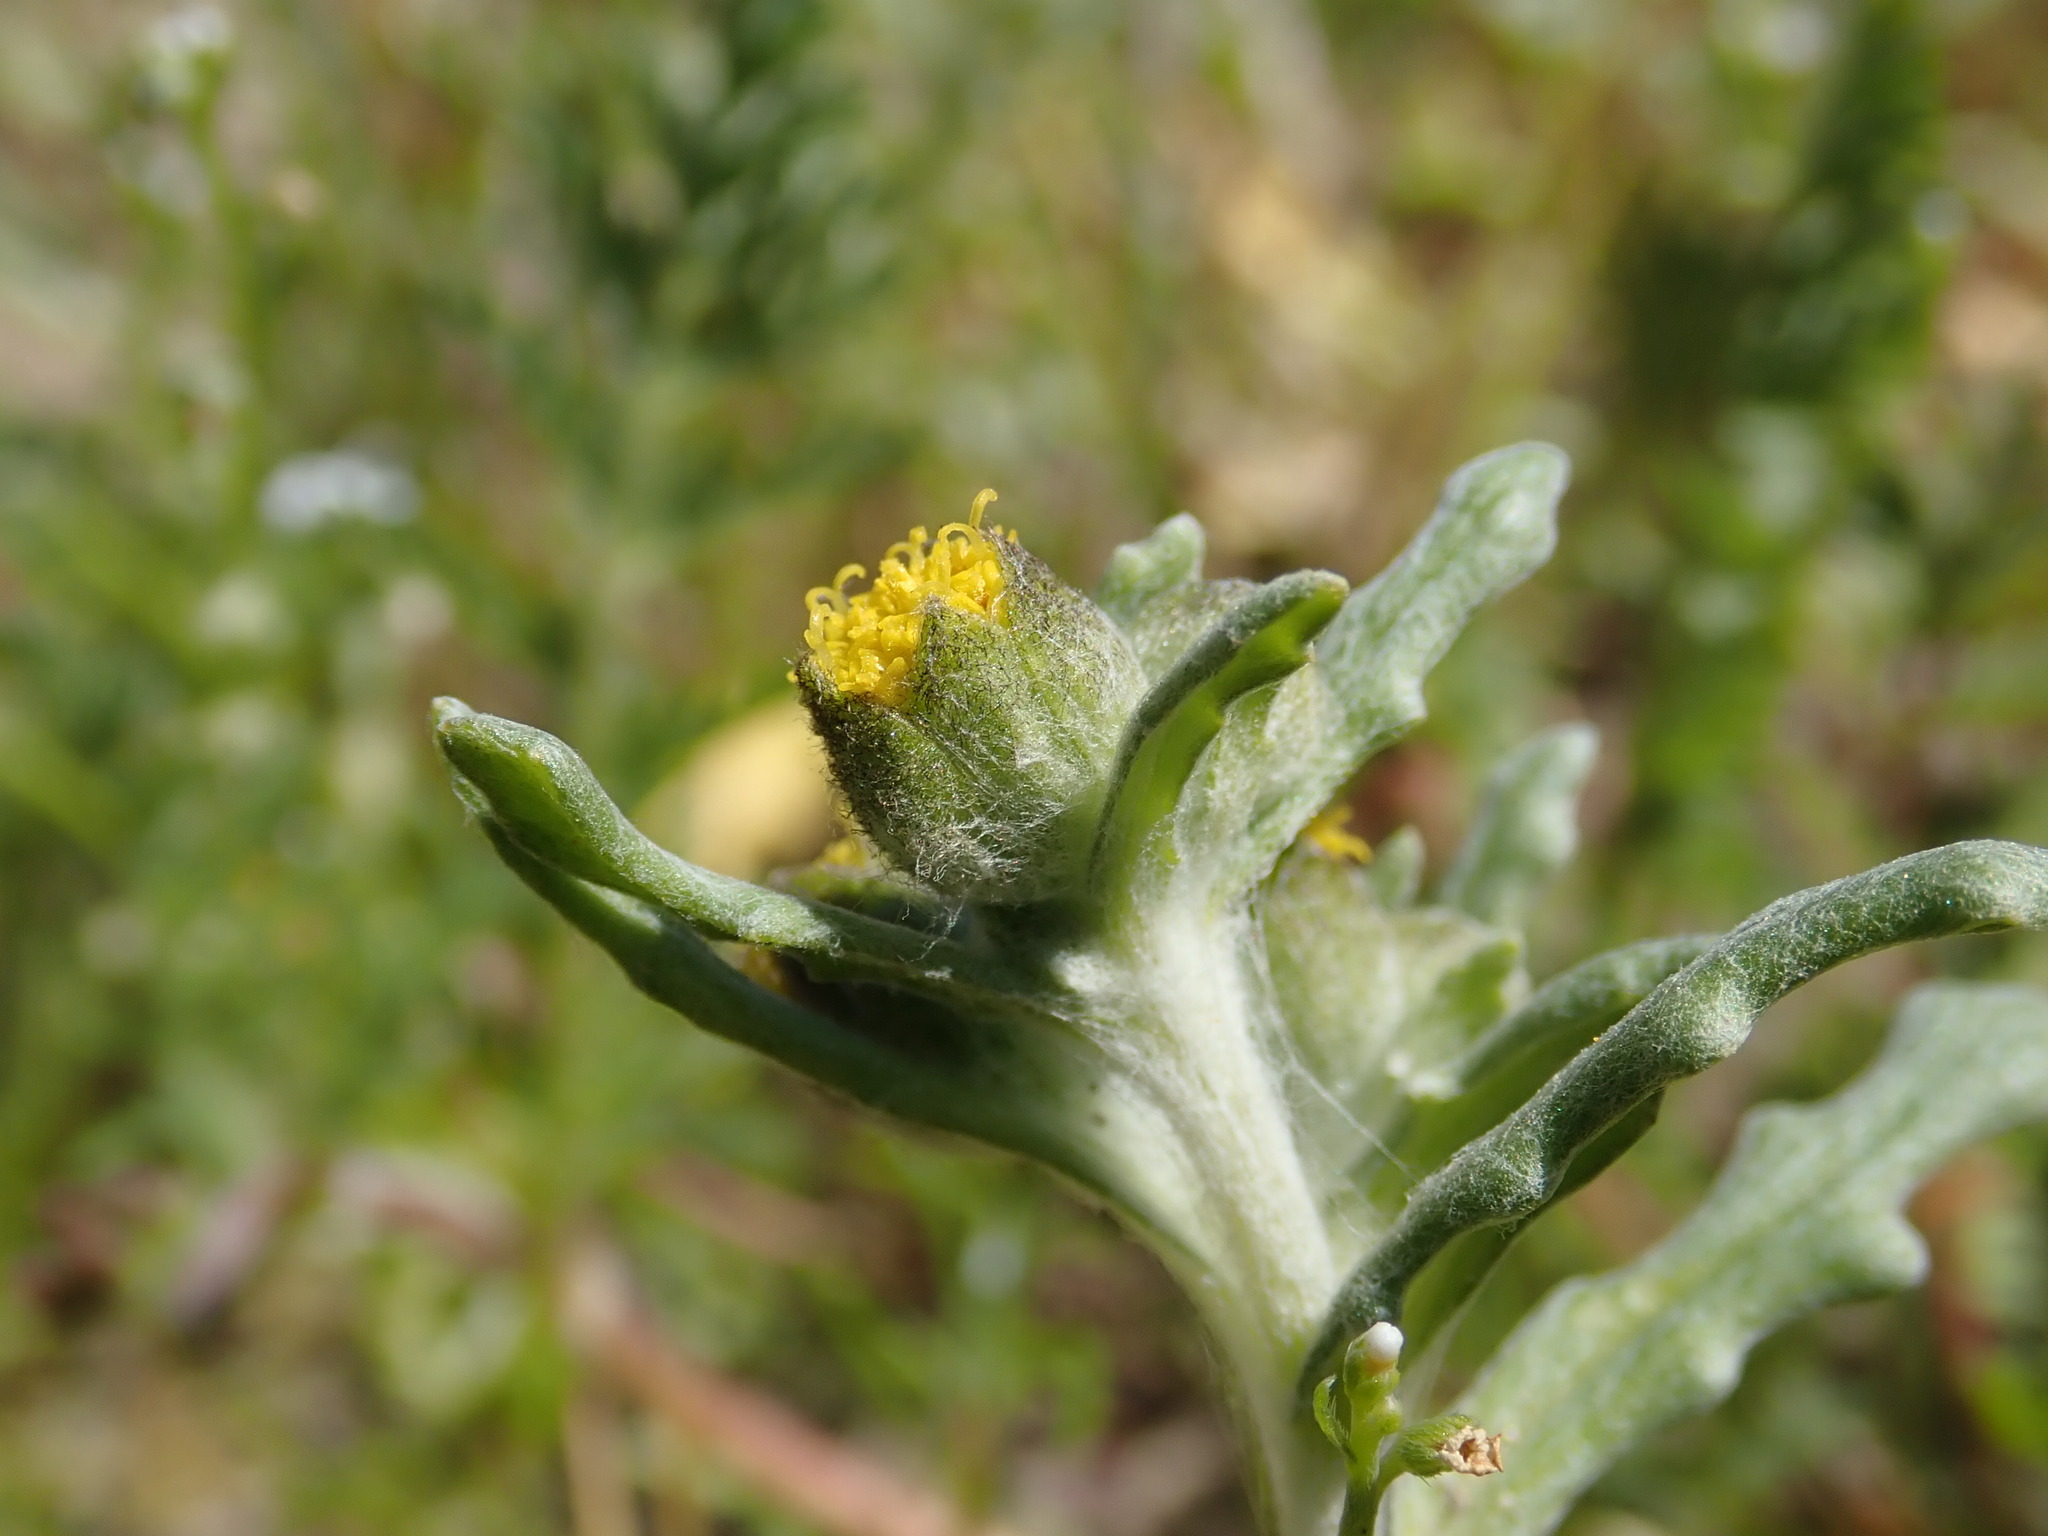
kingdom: Plantae
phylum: Tracheophyta
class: Magnoliopsida
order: Asterales
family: Asteraceae
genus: Monolopia
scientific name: Monolopia congdonii
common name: San joaquin woolly-threads
